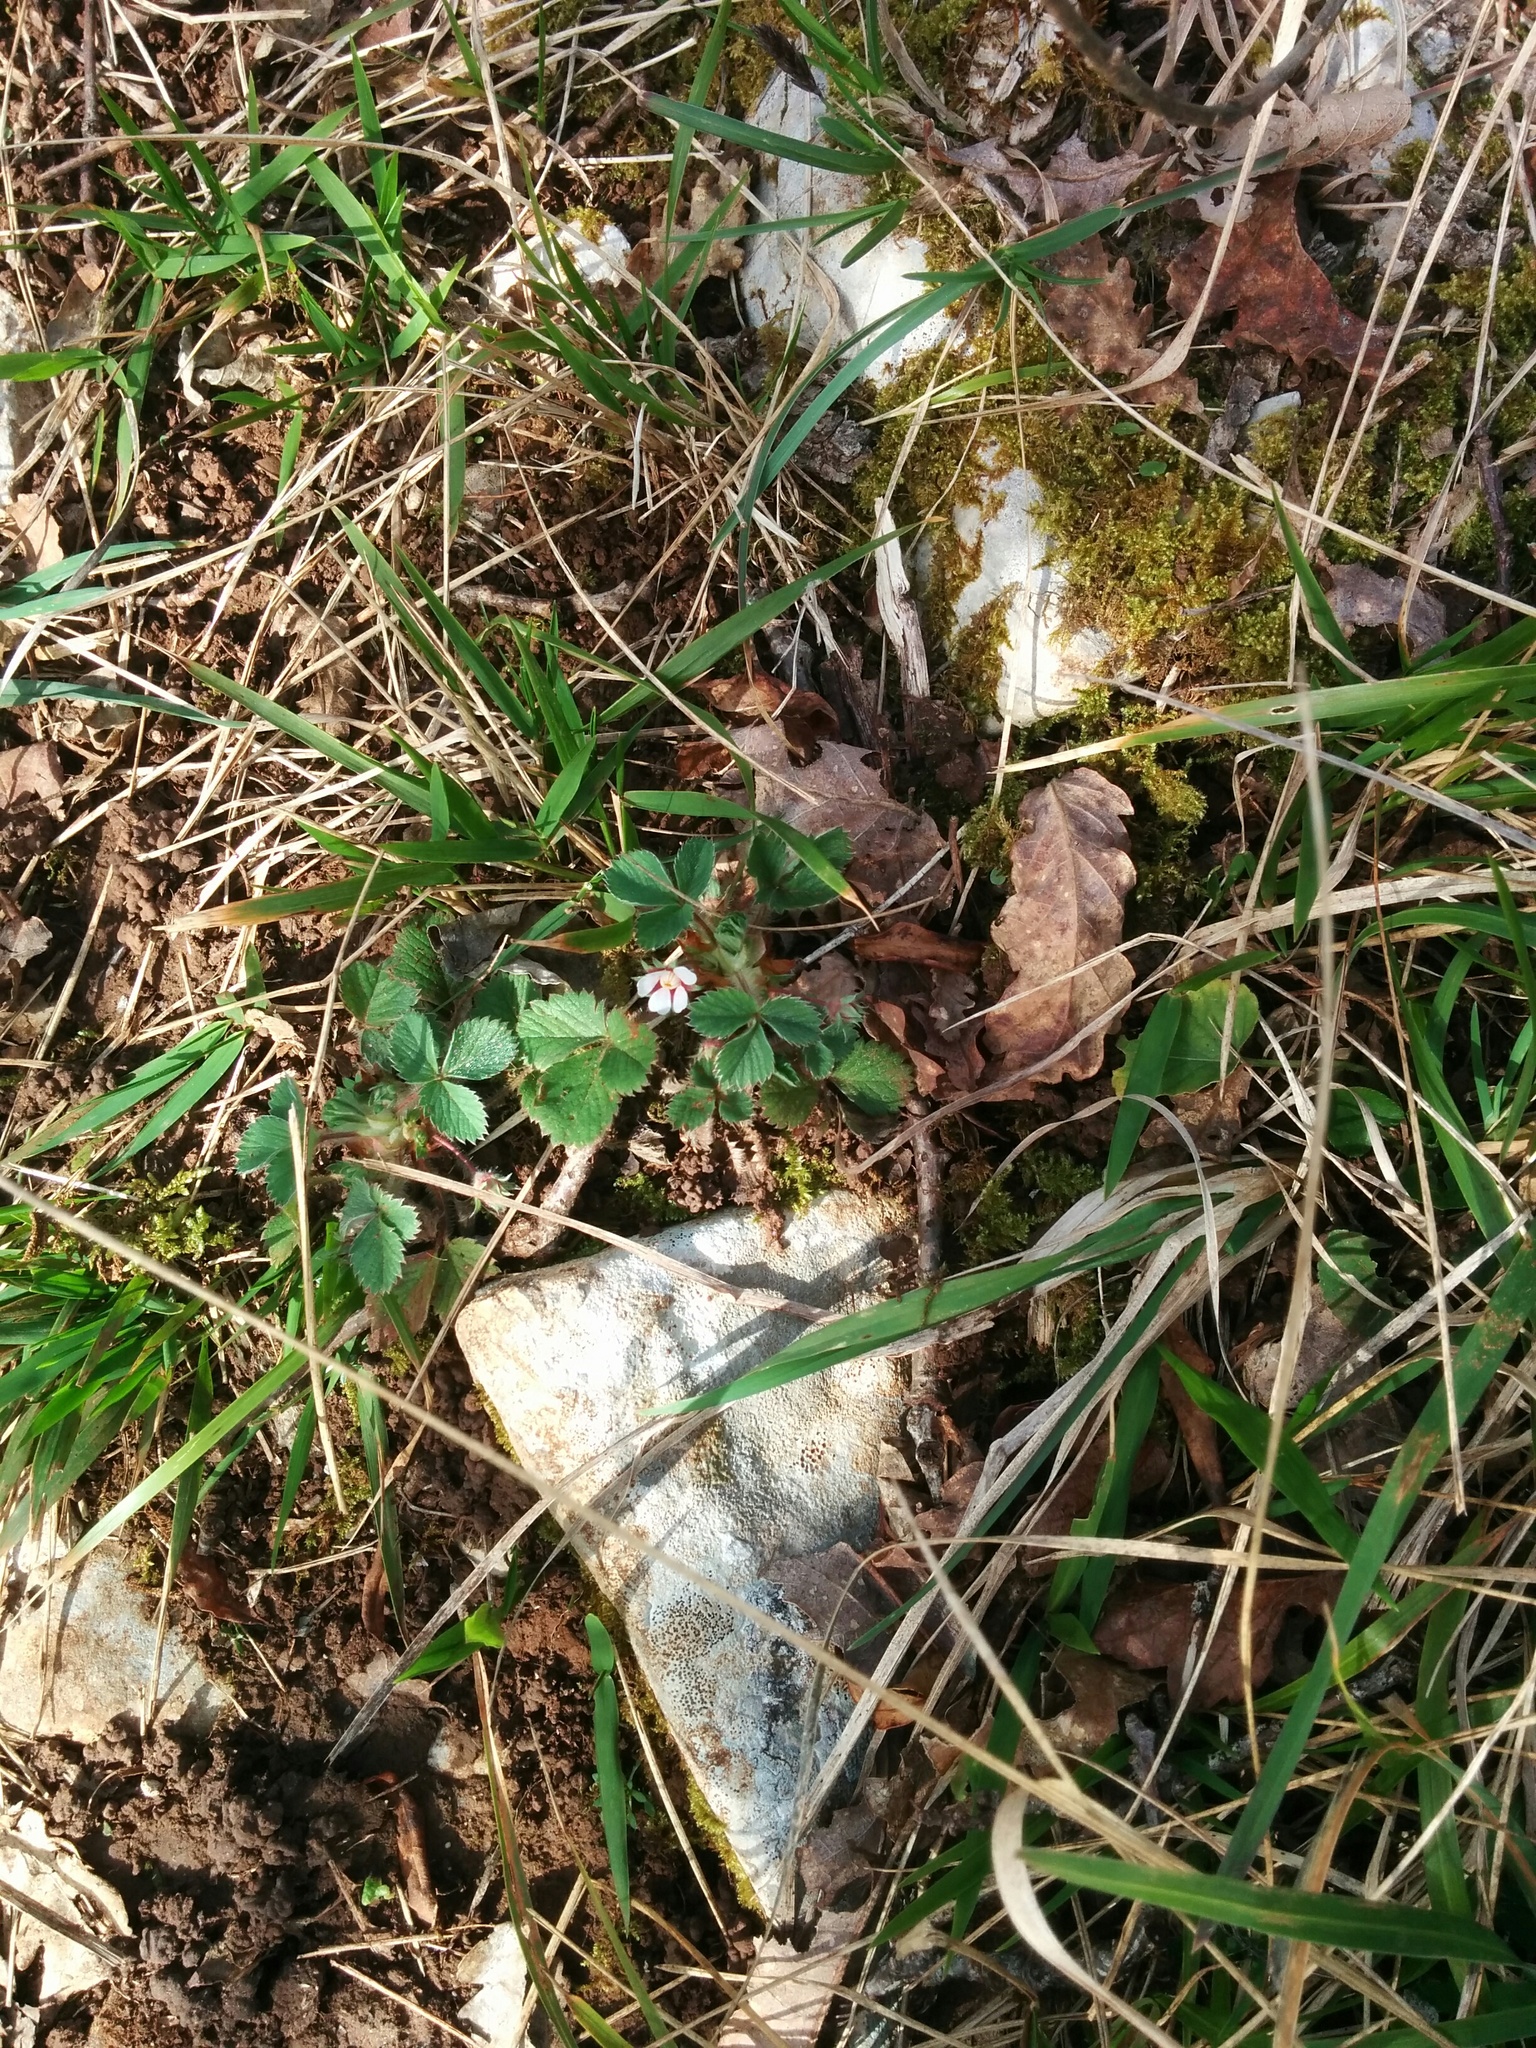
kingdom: Plantae
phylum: Tracheophyta
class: Magnoliopsida
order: Rosales
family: Rosaceae
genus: Potentilla
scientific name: Potentilla micrantha
